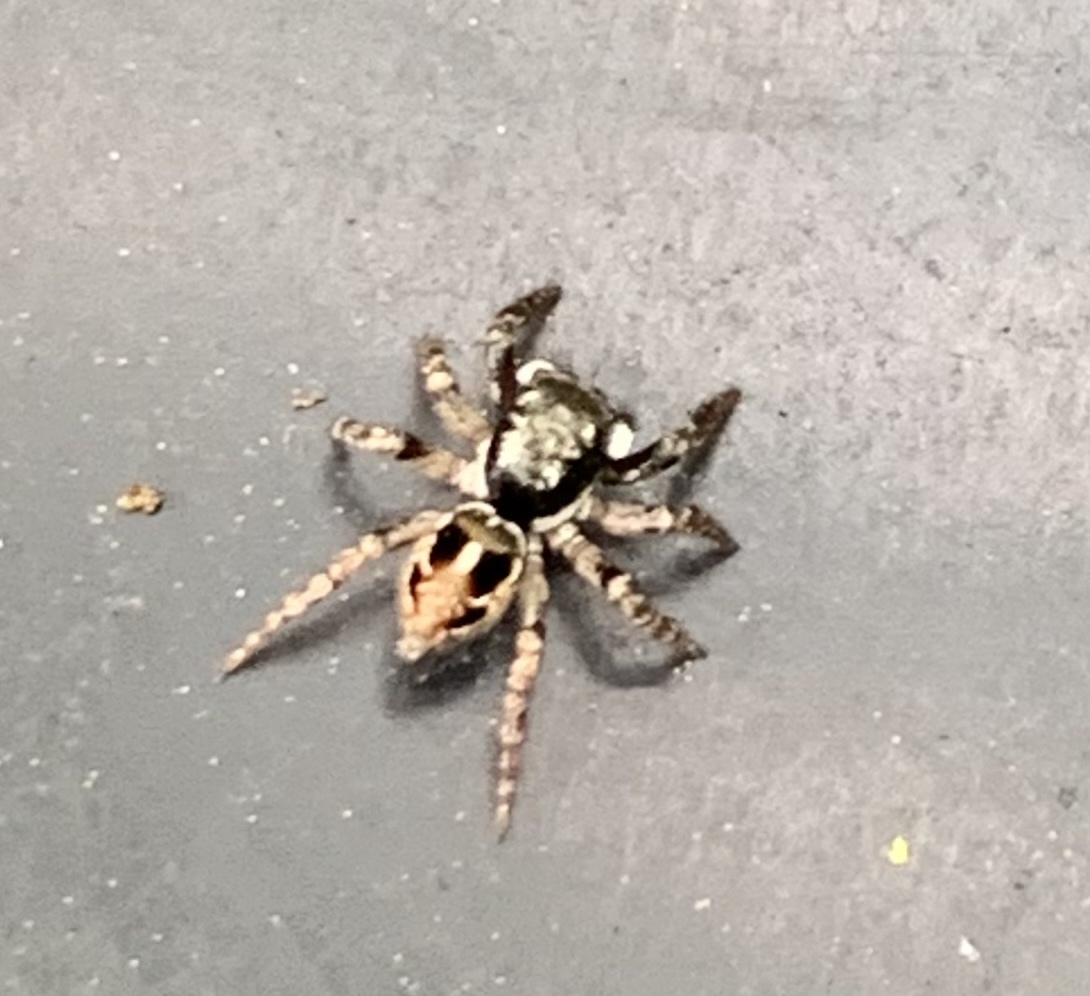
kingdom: Animalia
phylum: Arthropoda
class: Arachnida
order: Araneae
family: Salticidae
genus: Anasaitis
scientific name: Anasaitis canosa
